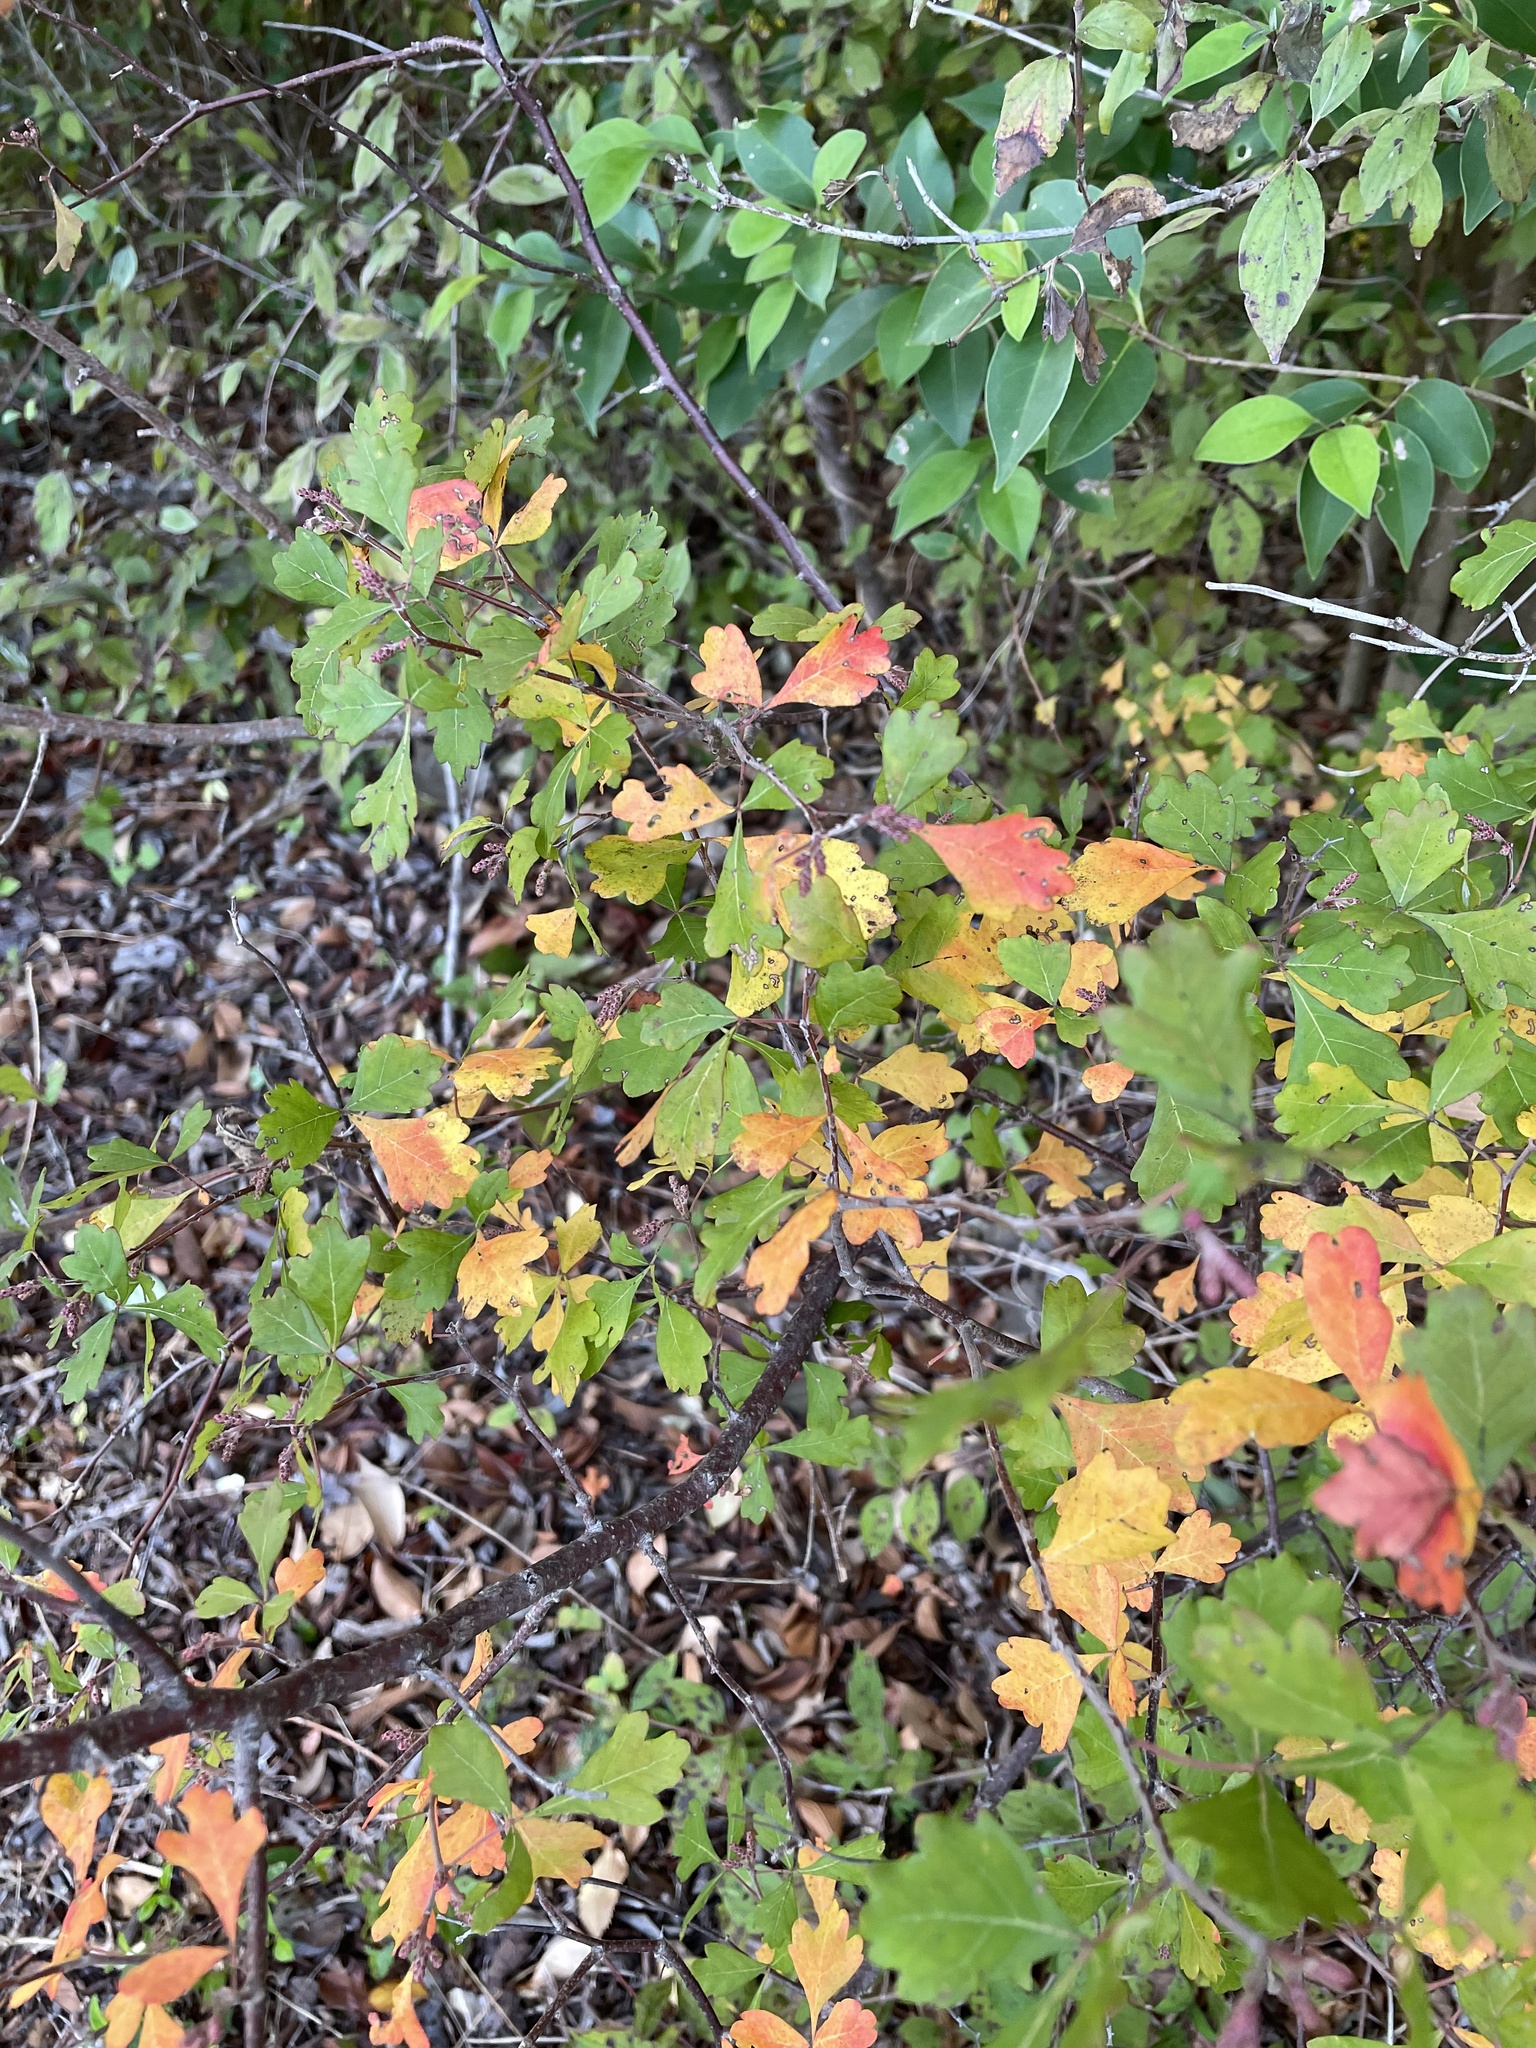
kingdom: Plantae
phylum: Tracheophyta
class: Magnoliopsida
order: Sapindales
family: Anacardiaceae
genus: Rhus
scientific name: Rhus aromatica
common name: Aromatic sumac
